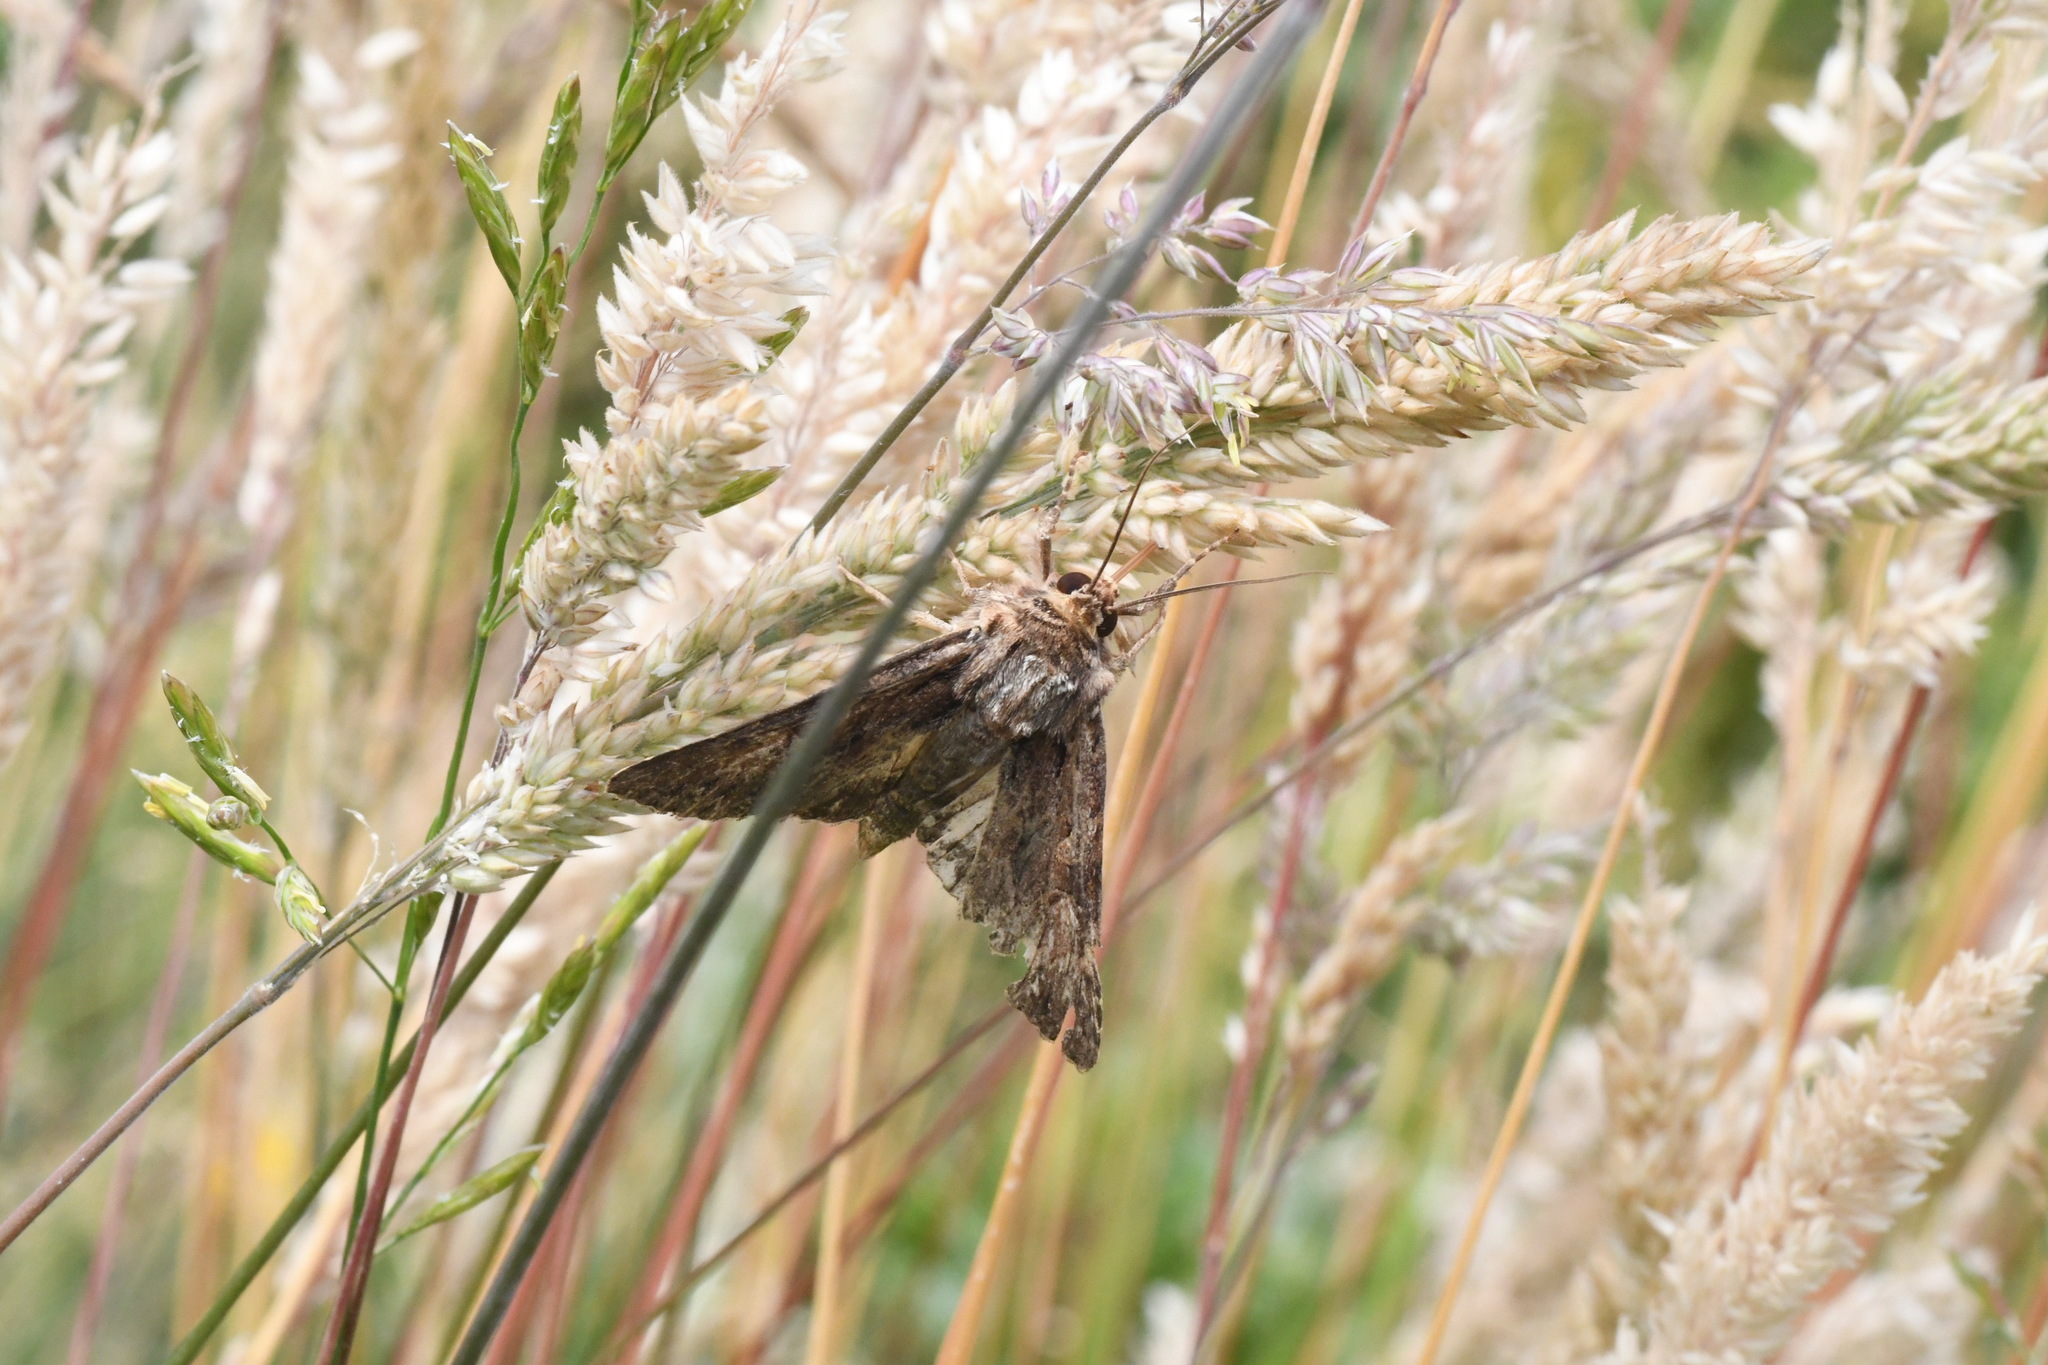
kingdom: Animalia
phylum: Arthropoda
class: Insecta
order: Lepidoptera
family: Noctuidae
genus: Apamea
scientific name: Apamea monoglypha
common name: Dark arches
